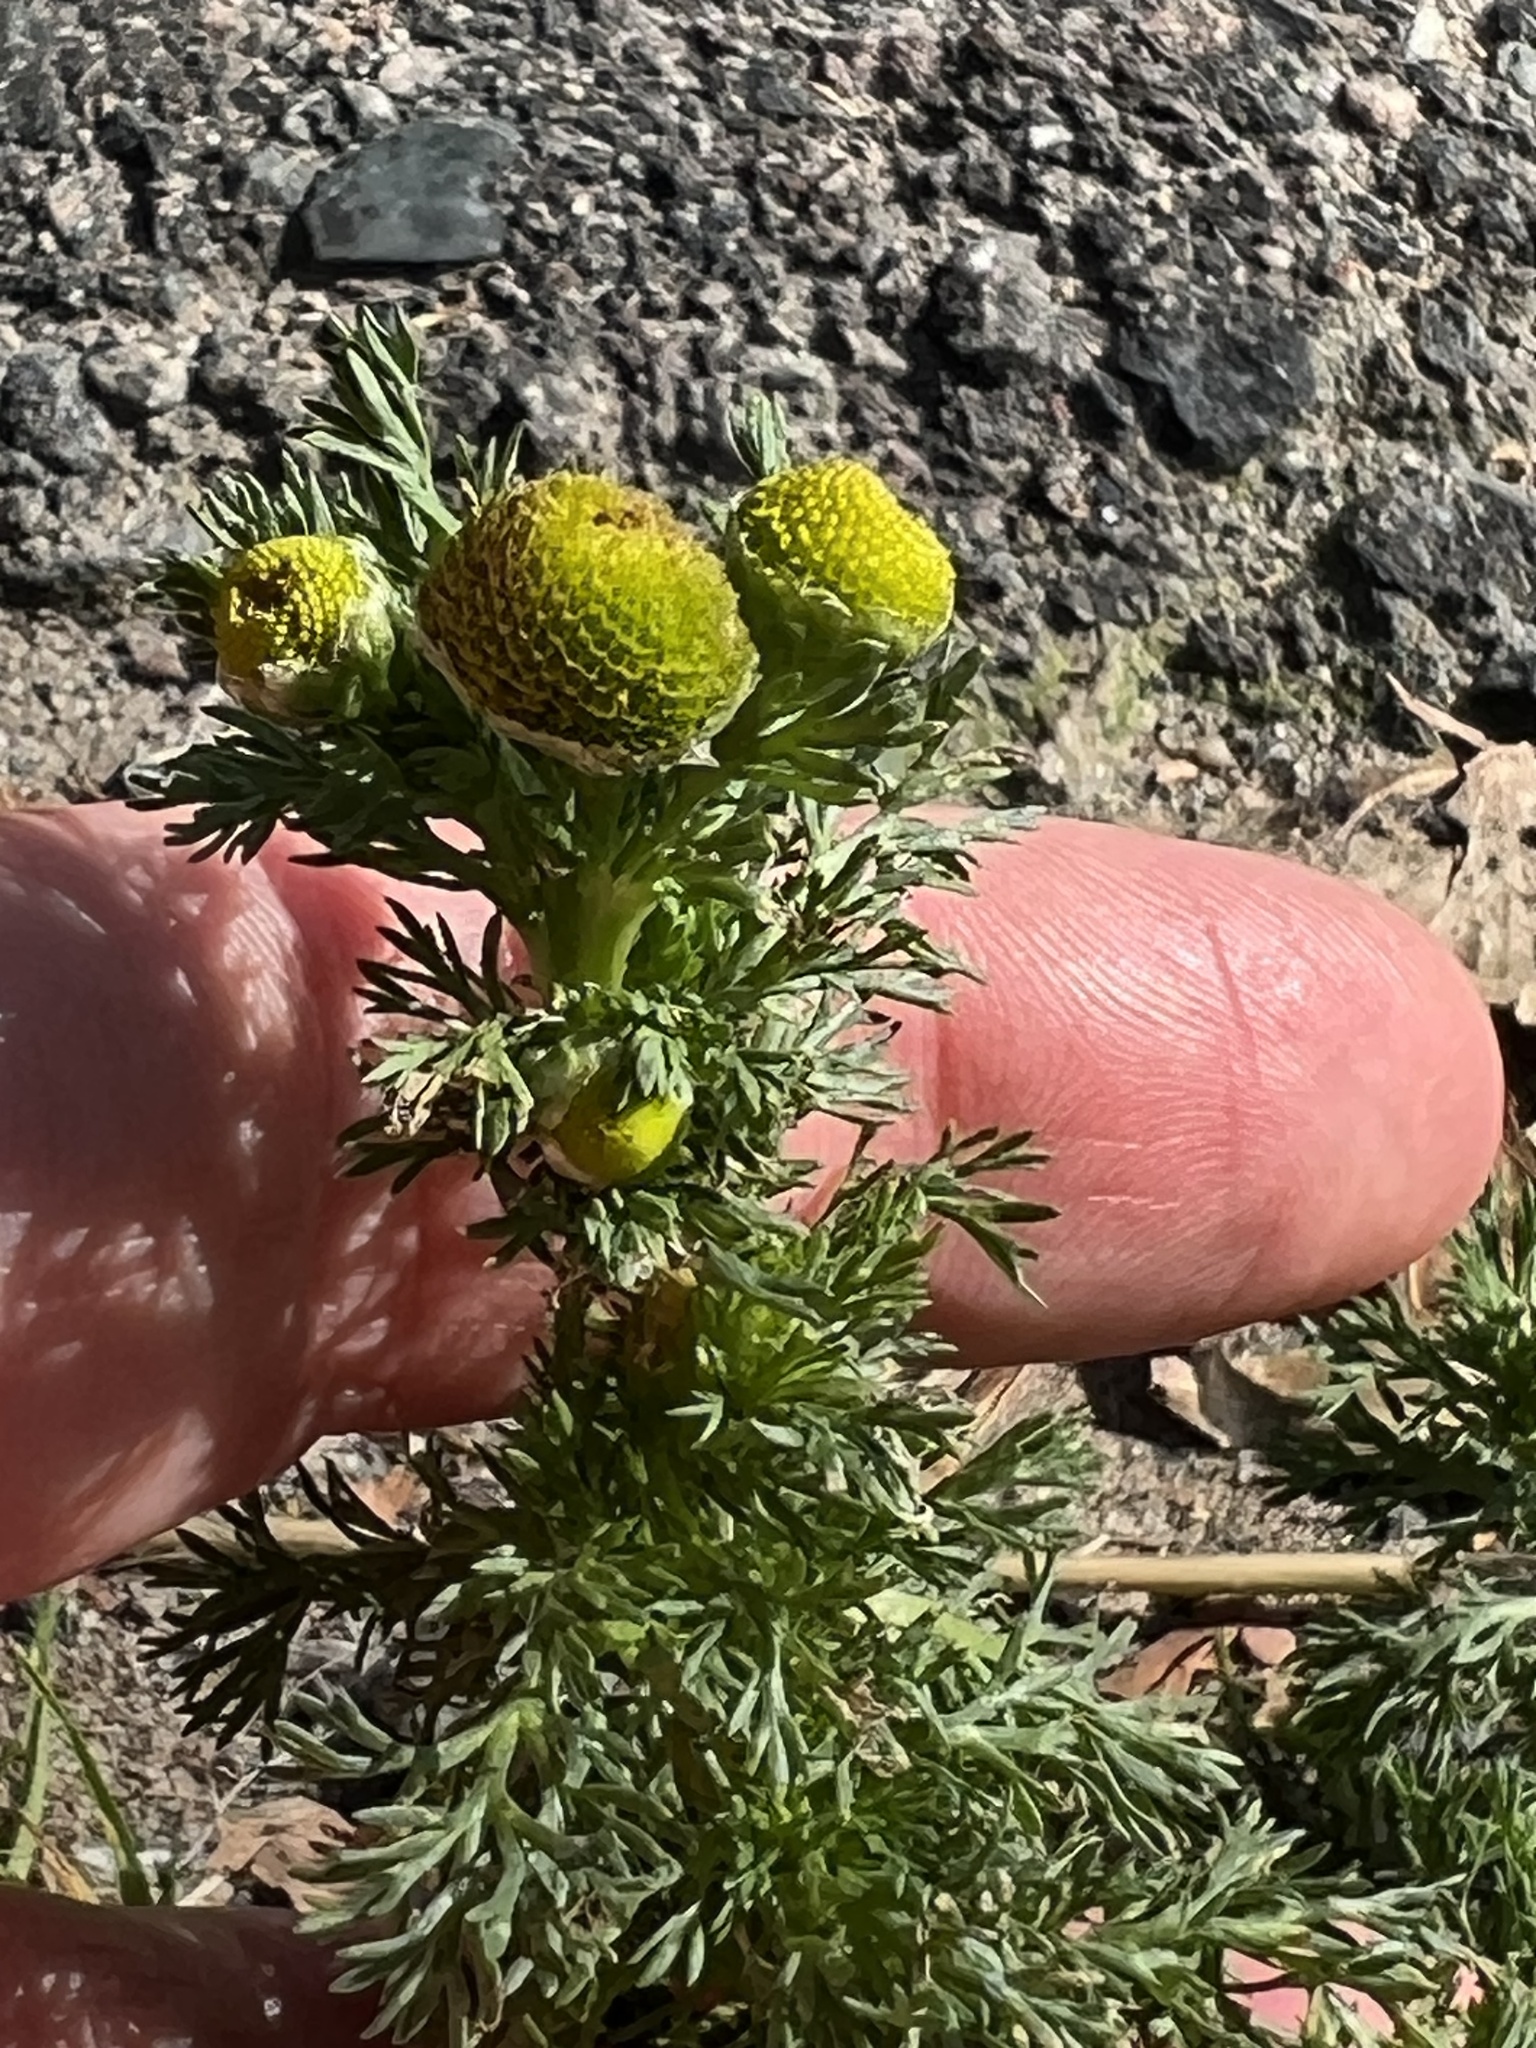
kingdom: Plantae
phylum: Tracheophyta
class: Magnoliopsida
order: Asterales
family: Asteraceae
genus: Matricaria
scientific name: Matricaria discoidea
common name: Disc mayweed
